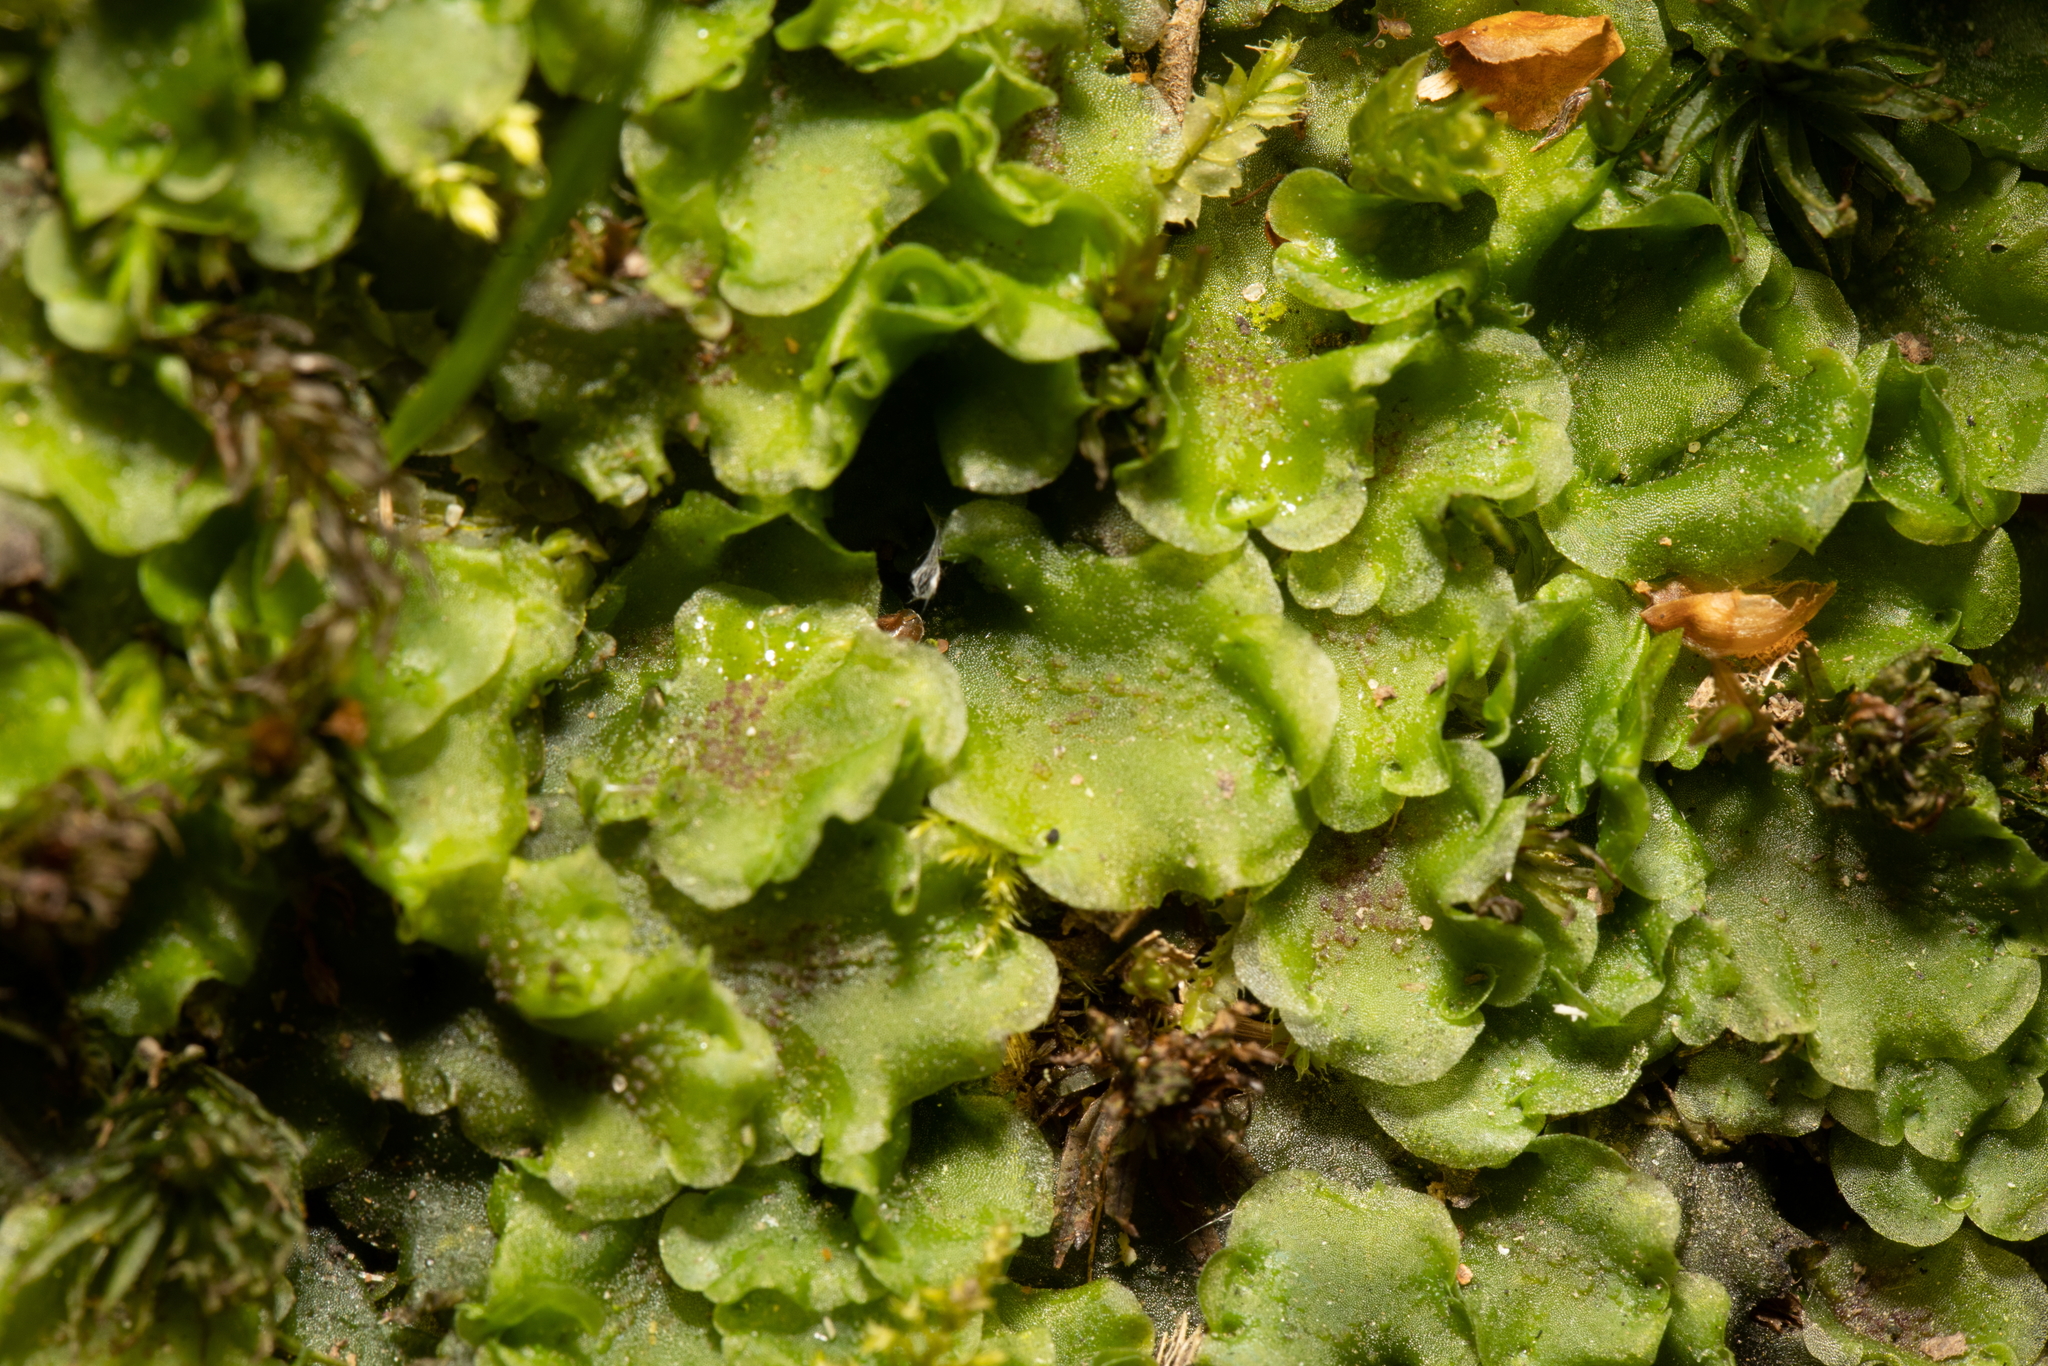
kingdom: Plantae
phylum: Marchantiophyta
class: Jungermanniopsida
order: Pelliales
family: Pelliaceae
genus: Pellia
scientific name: Pellia neesiana
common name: Nees  pellia
